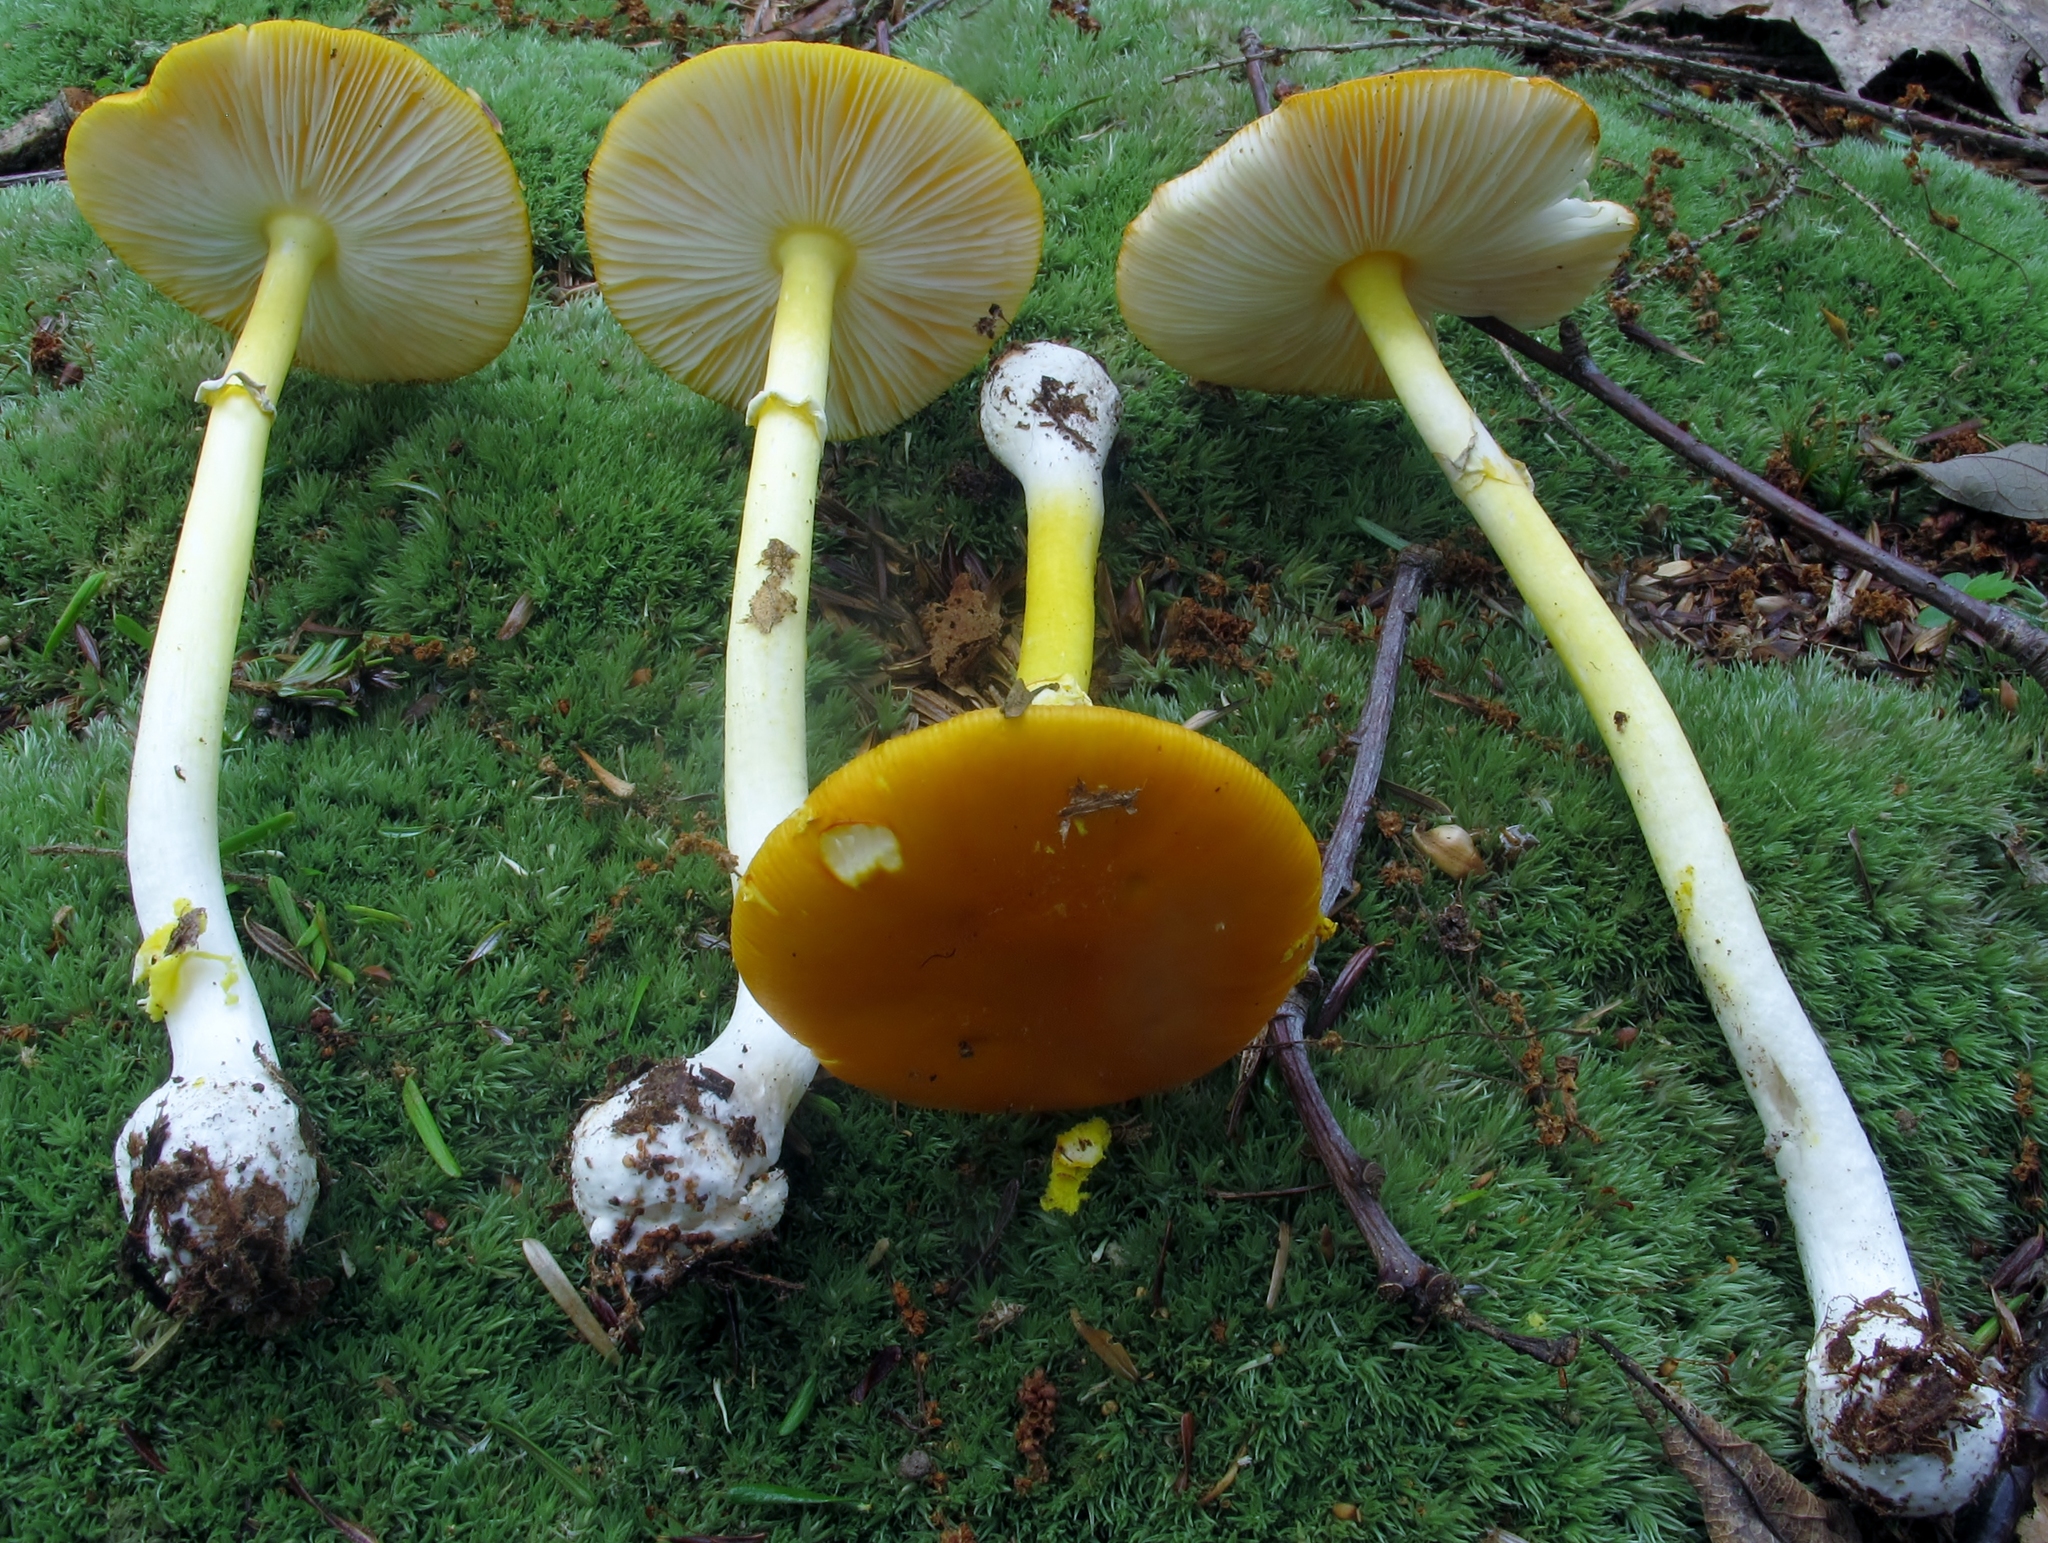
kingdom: Fungi
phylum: Basidiomycota
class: Agaricomycetes
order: Agaricales
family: Amanitaceae
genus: Amanita
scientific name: Amanita flavoconia
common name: Yellow patches
